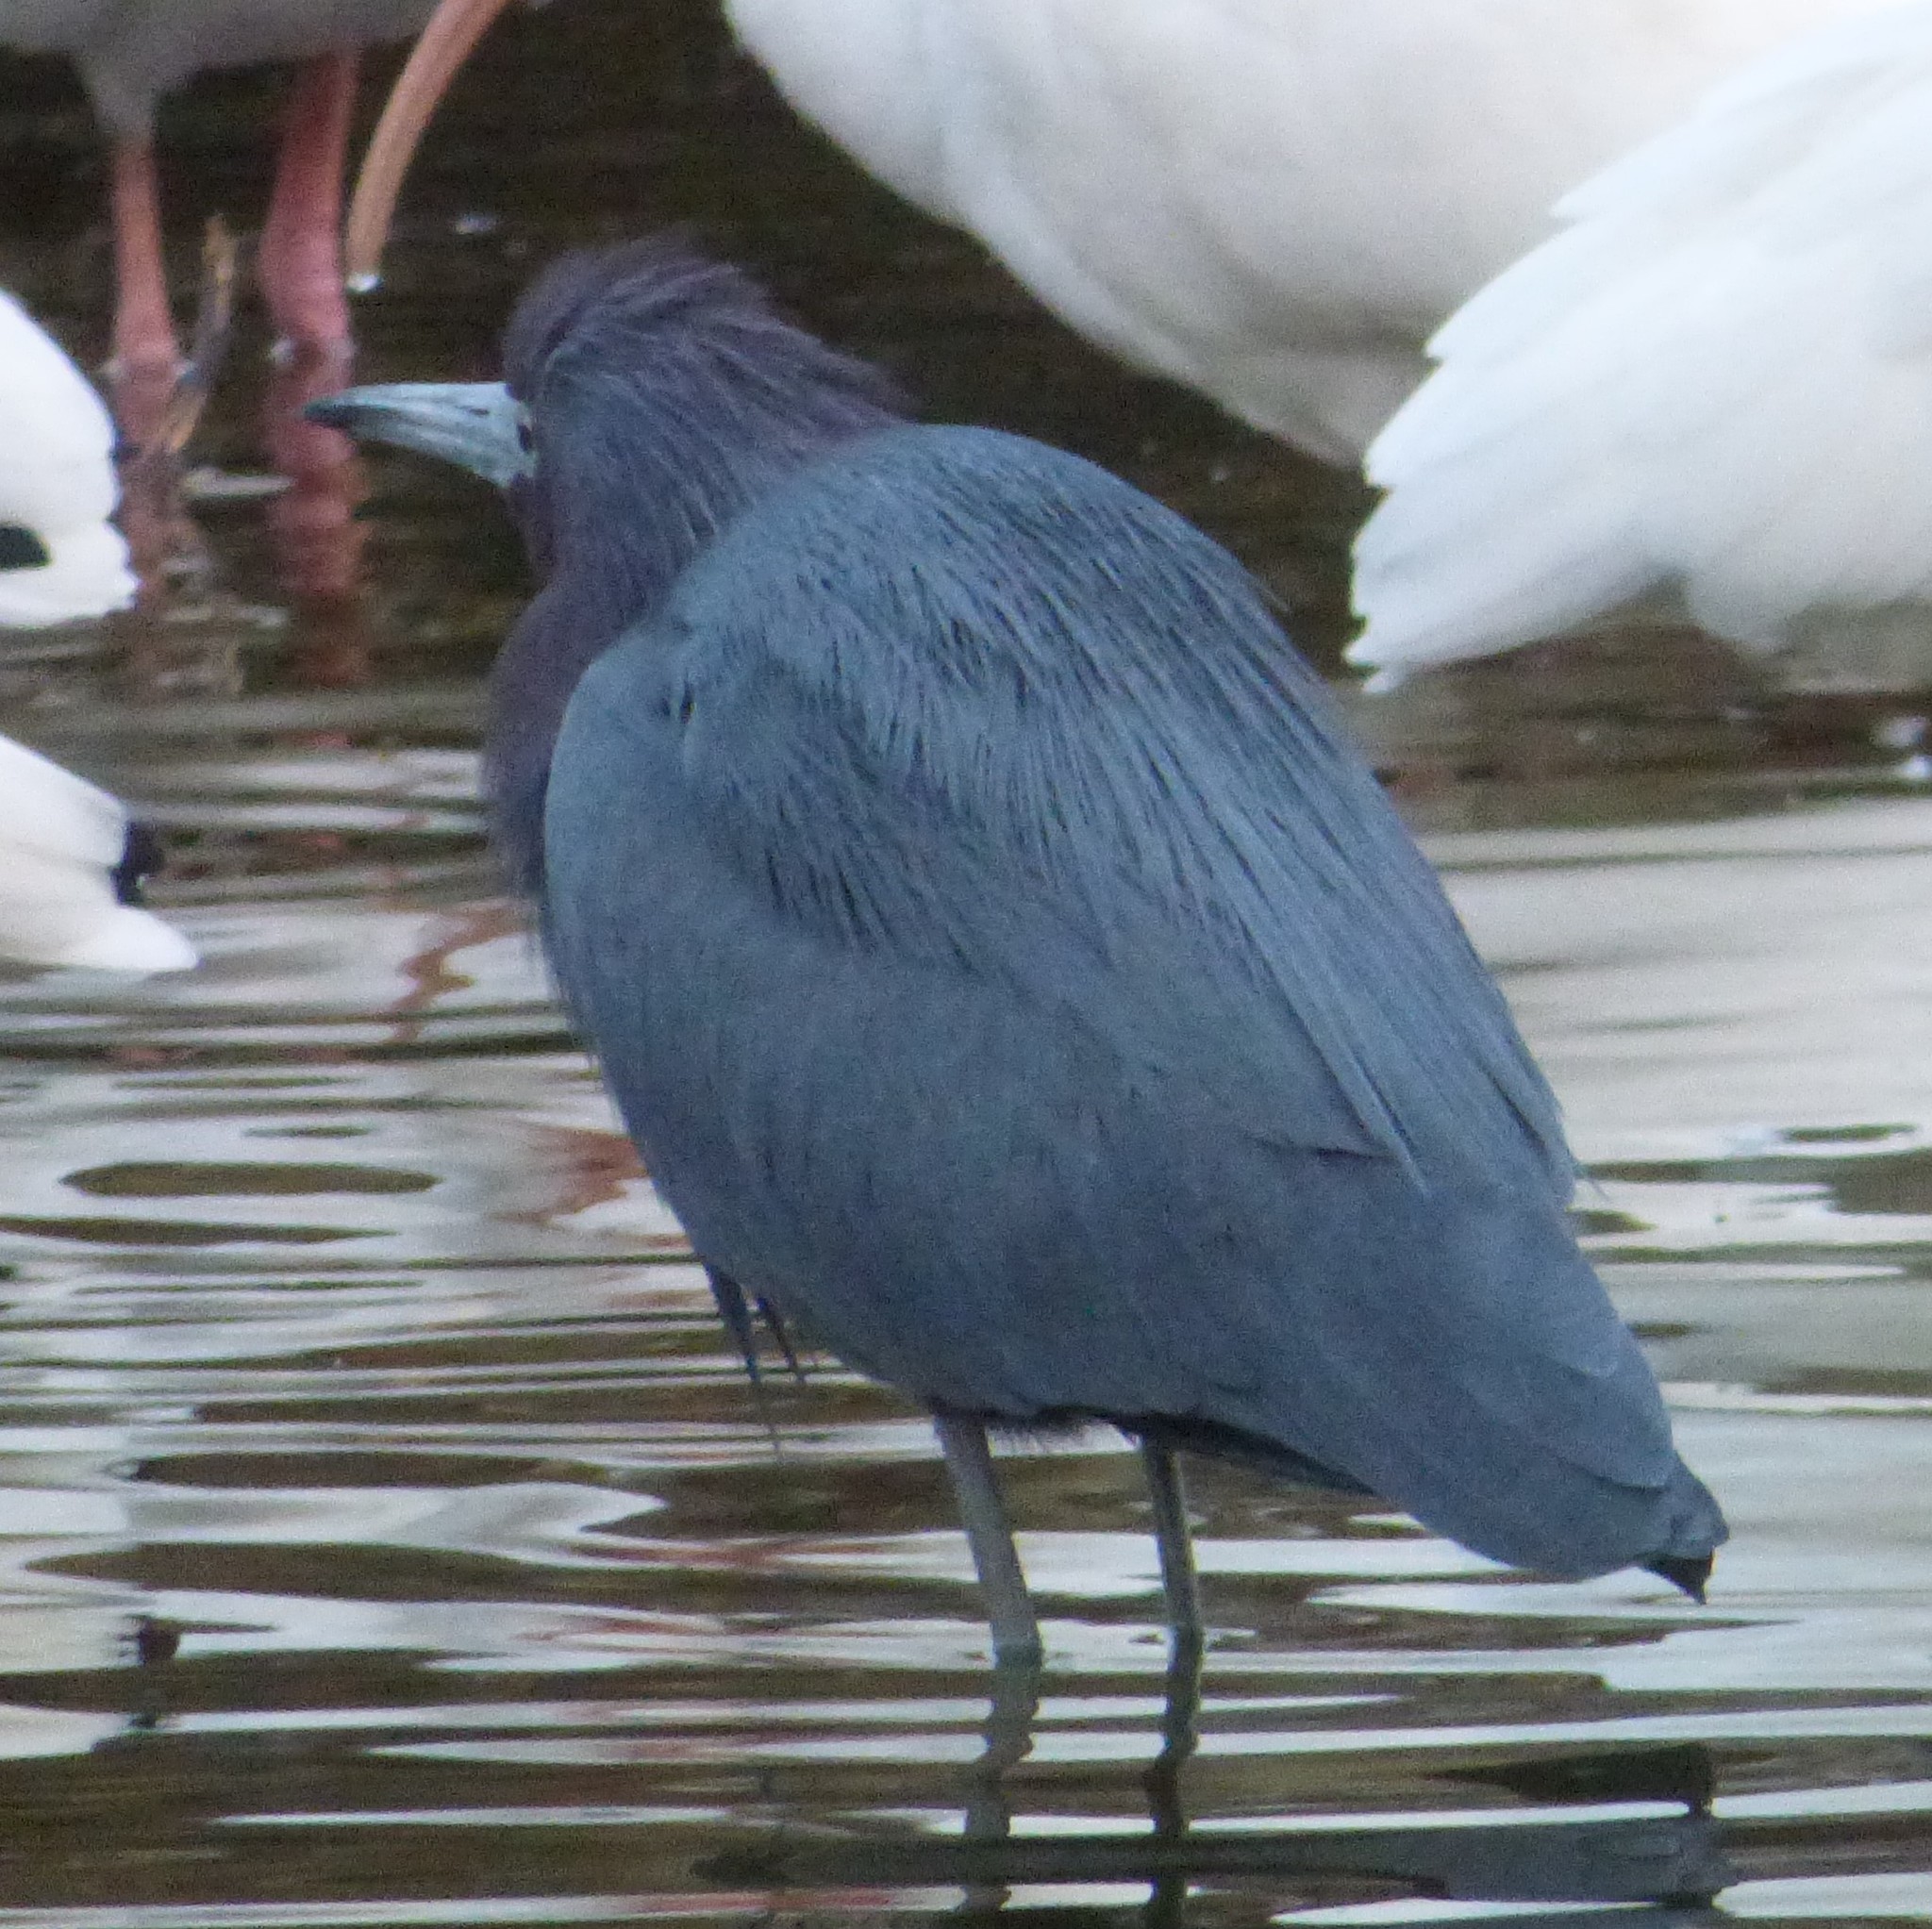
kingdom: Animalia
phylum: Chordata
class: Aves
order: Pelecaniformes
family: Ardeidae
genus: Egretta
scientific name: Egretta caerulea
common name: Little blue heron
